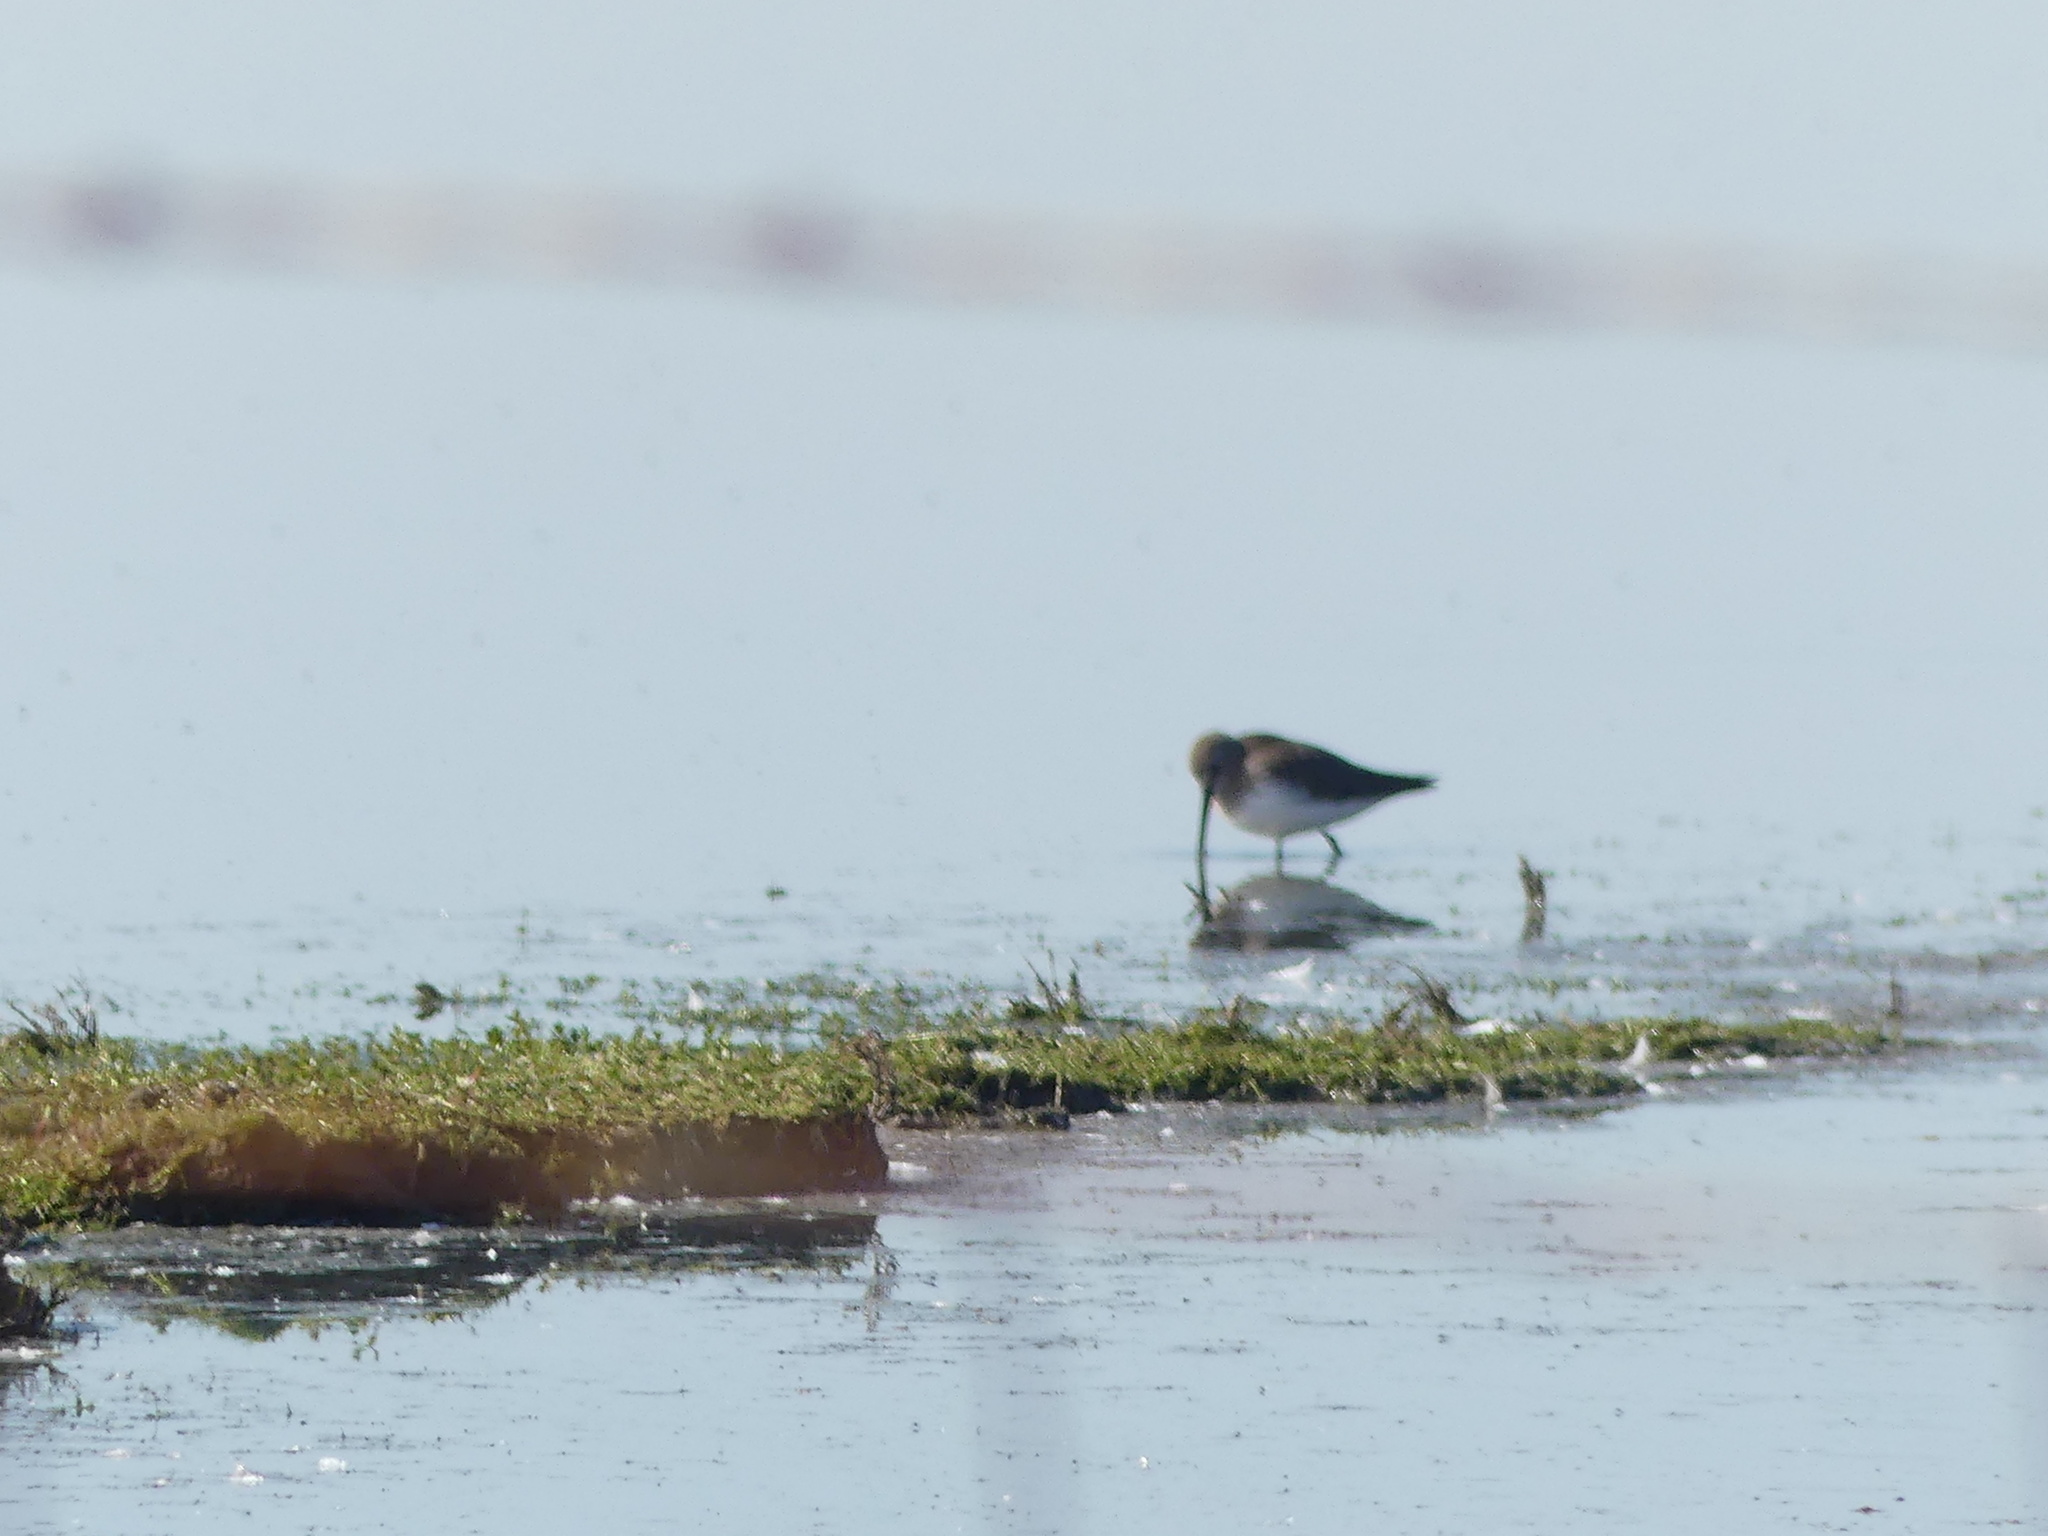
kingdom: Animalia
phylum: Chordata
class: Aves
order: Charadriiformes
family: Scolopacidae
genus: Calidris
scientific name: Calidris alpina
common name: Dunlin
